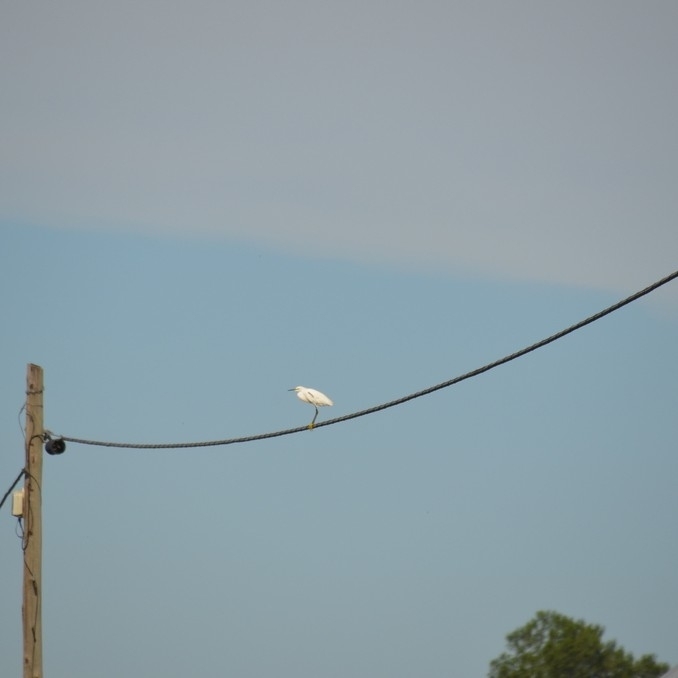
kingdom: Animalia
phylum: Chordata
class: Aves
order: Pelecaniformes
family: Ardeidae
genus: Egretta
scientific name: Egretta thula
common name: Snowy egret
